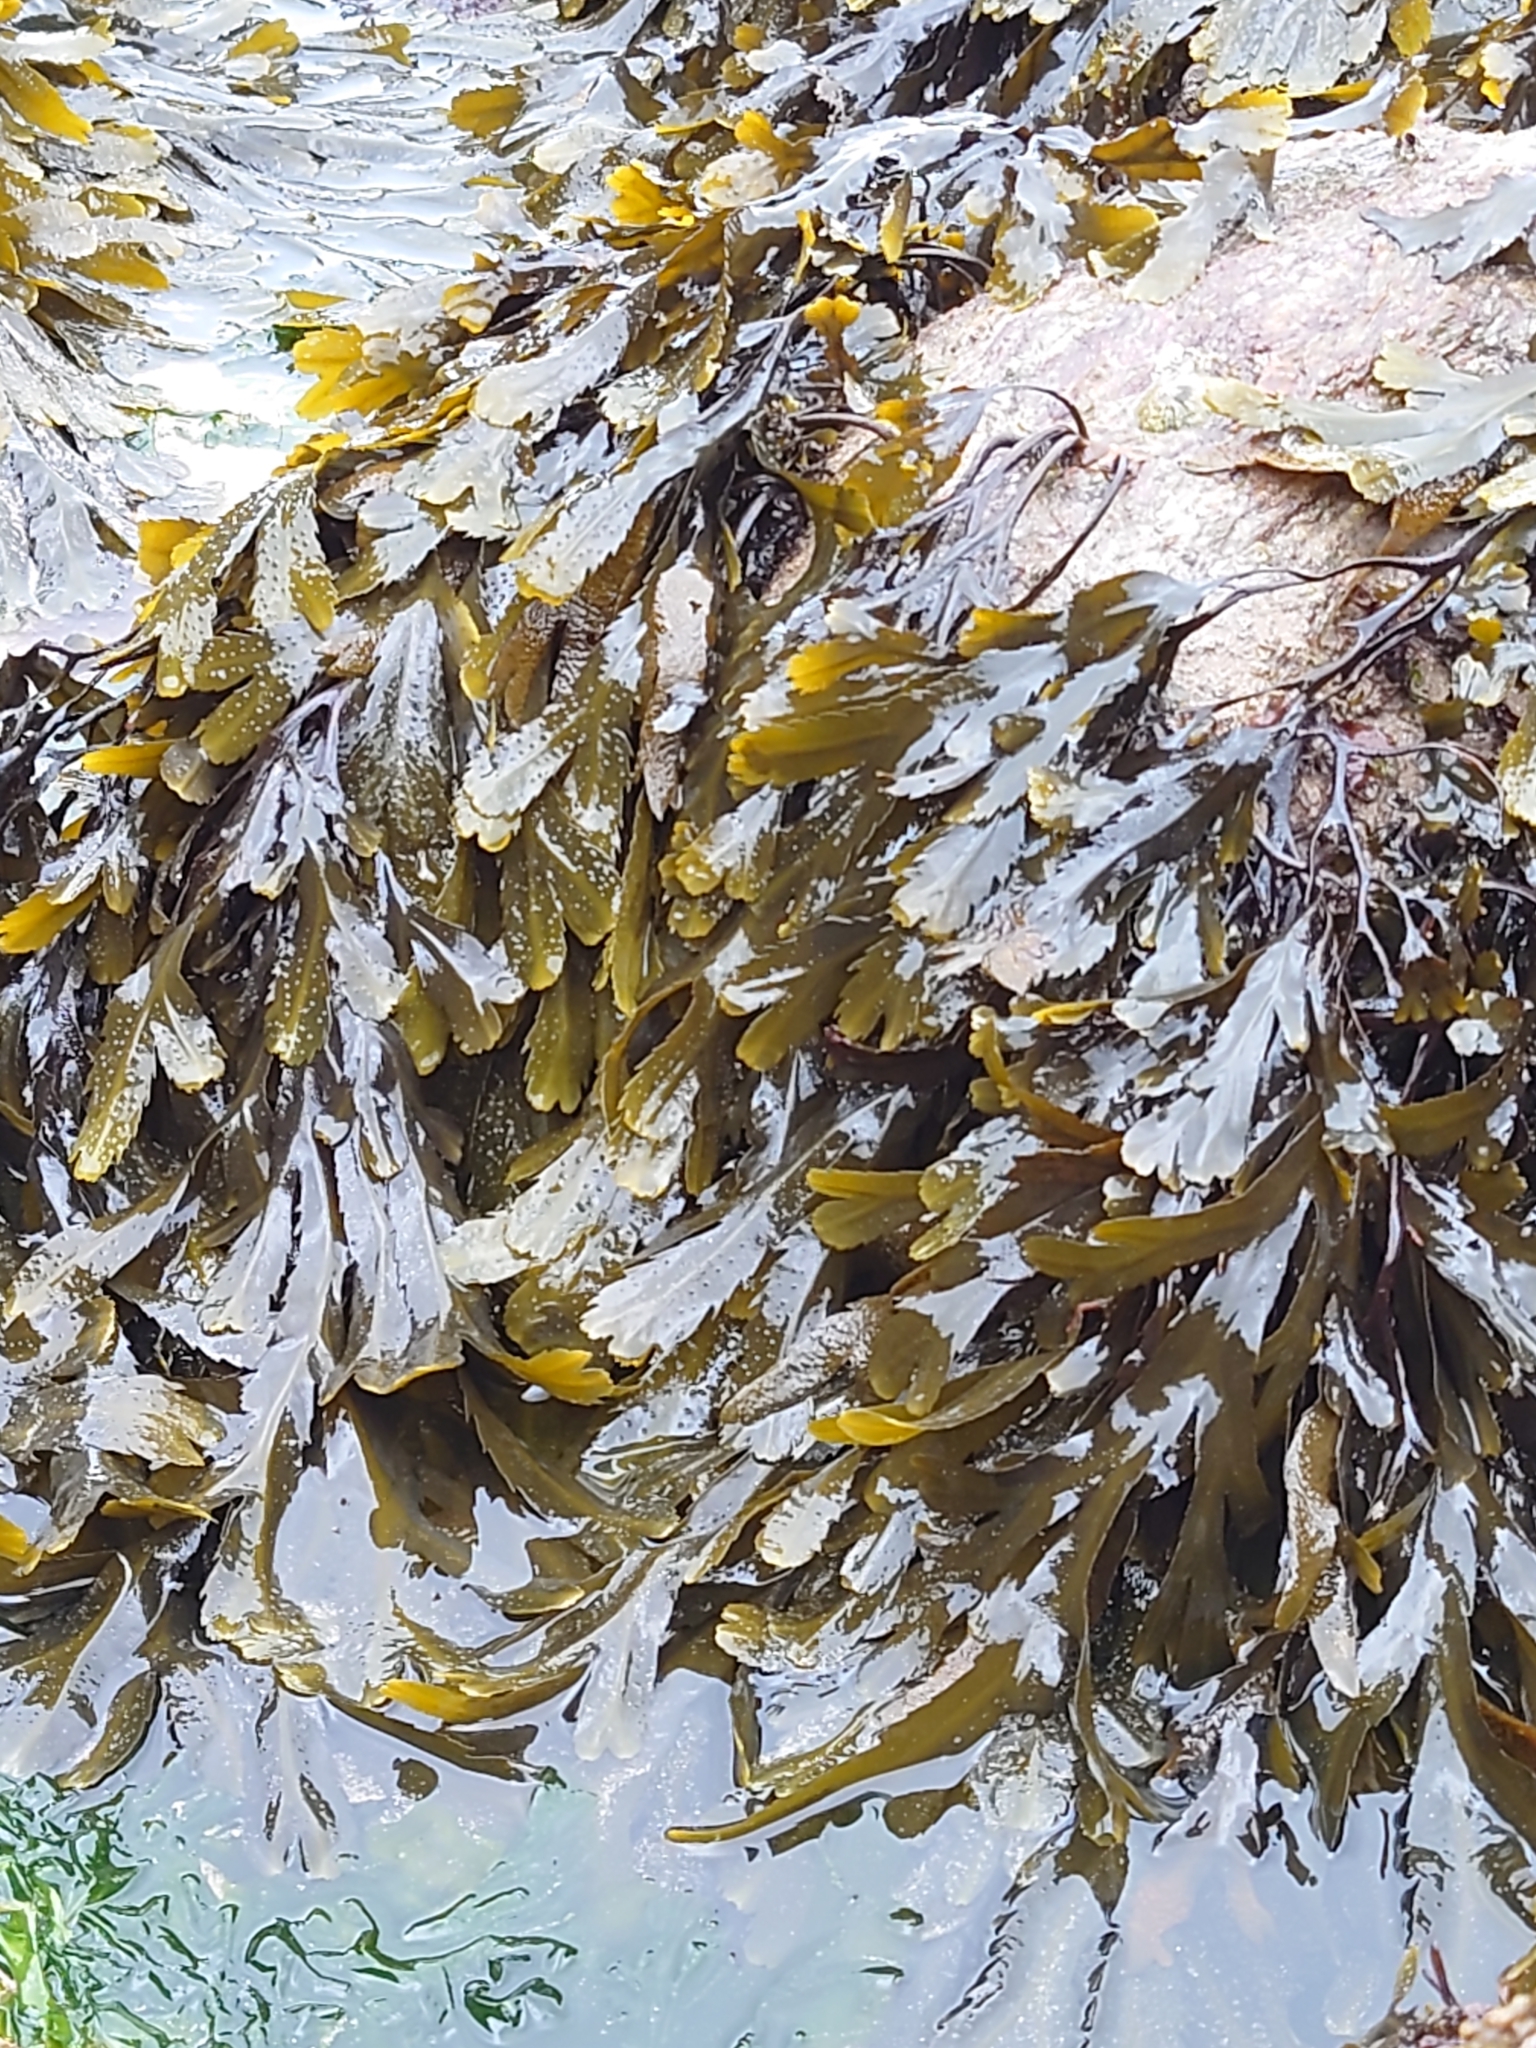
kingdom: Chromista
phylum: Ochrophyta
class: Phaeophyceae
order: Fucales
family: Fucaceae
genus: Fucus
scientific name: Fucus serratus
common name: Toothed wrack
